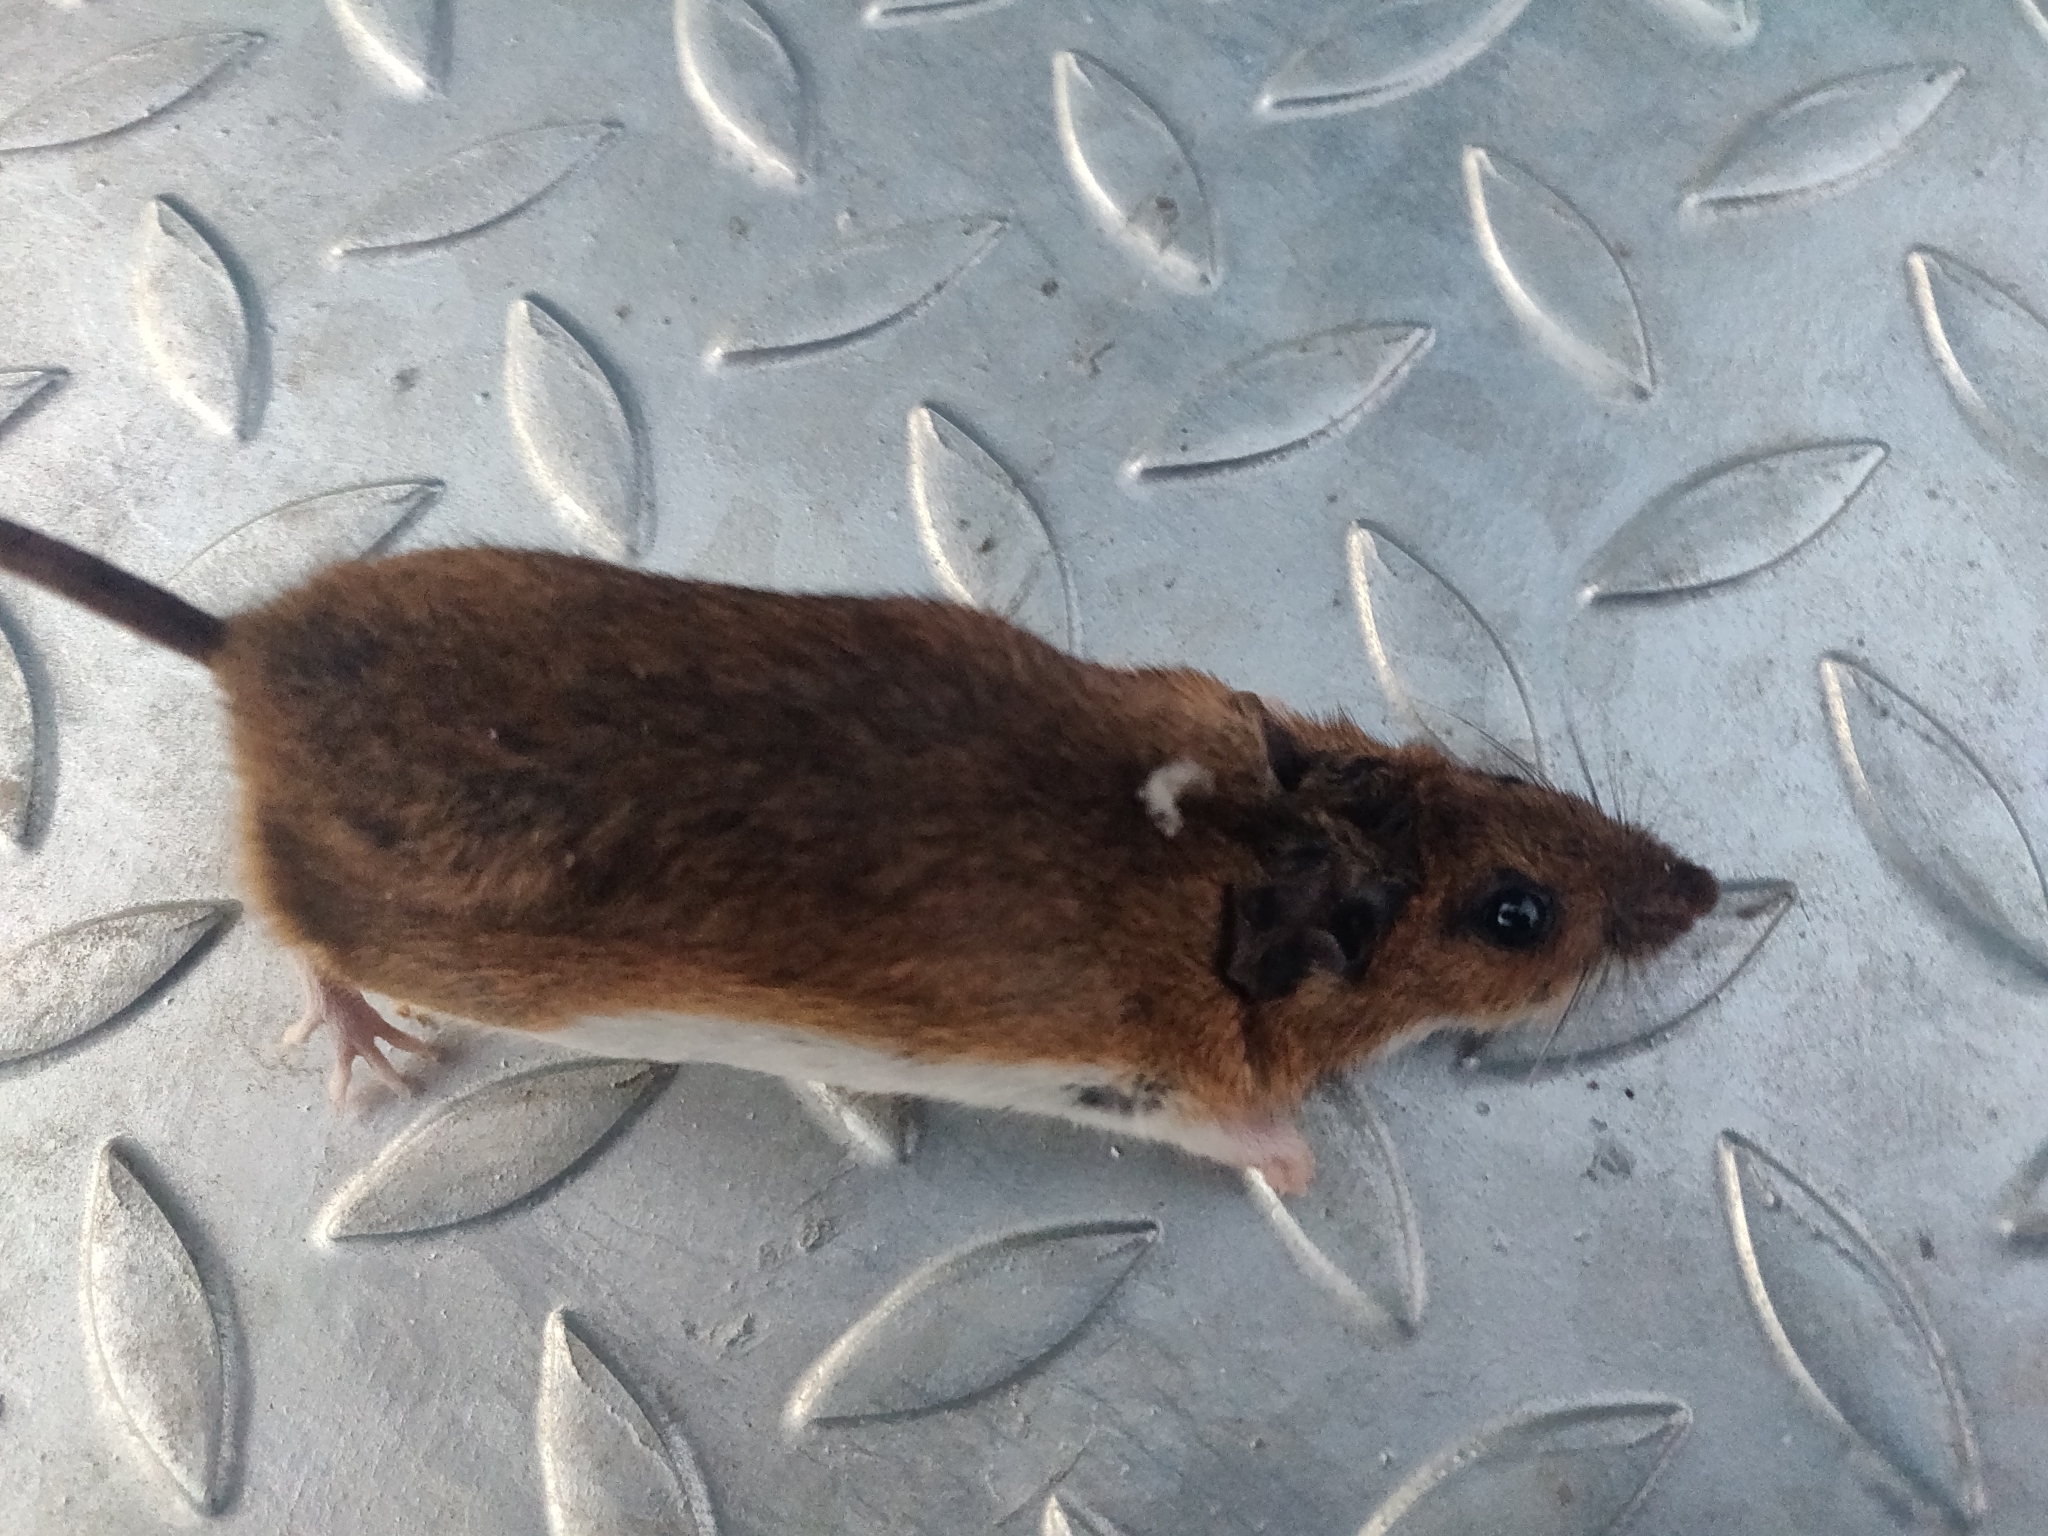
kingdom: Animalia
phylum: Chordata
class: Mammalia
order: Rodentia
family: Muridae
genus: Apodemus
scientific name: Apodemus flavicollis
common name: Yellow-necked field mouse
